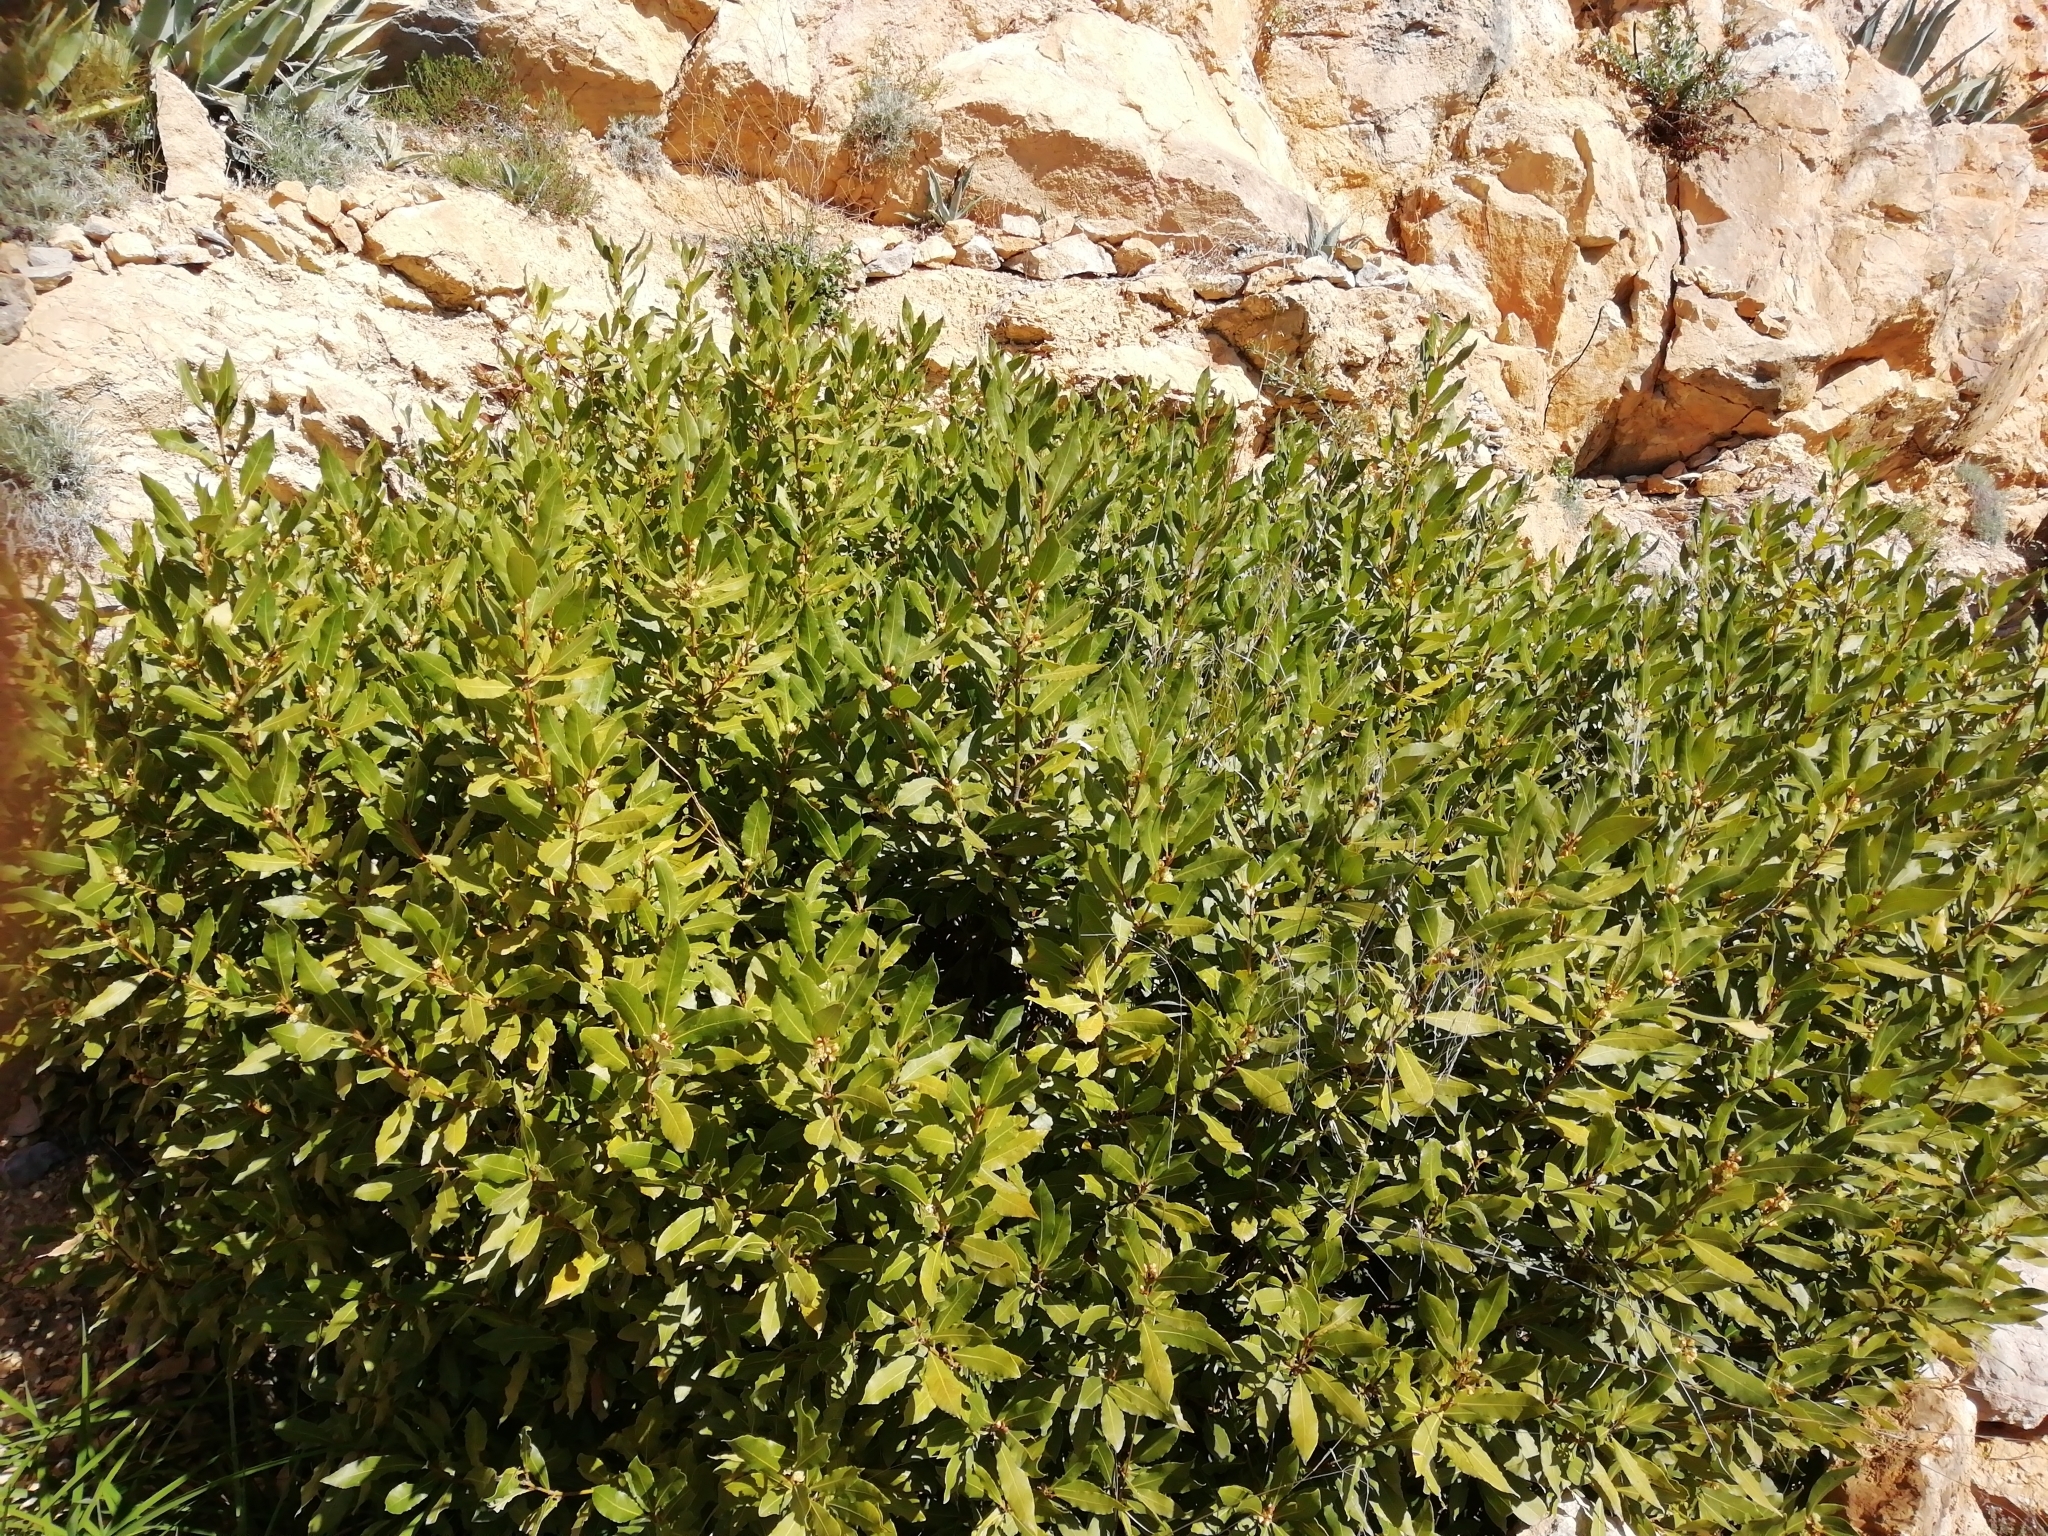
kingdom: Plantae
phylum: Tracheophyta
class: Magnoliopsida
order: Laurales
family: Lauraceae
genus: Laurus
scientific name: Laurus nobilis
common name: Bay
